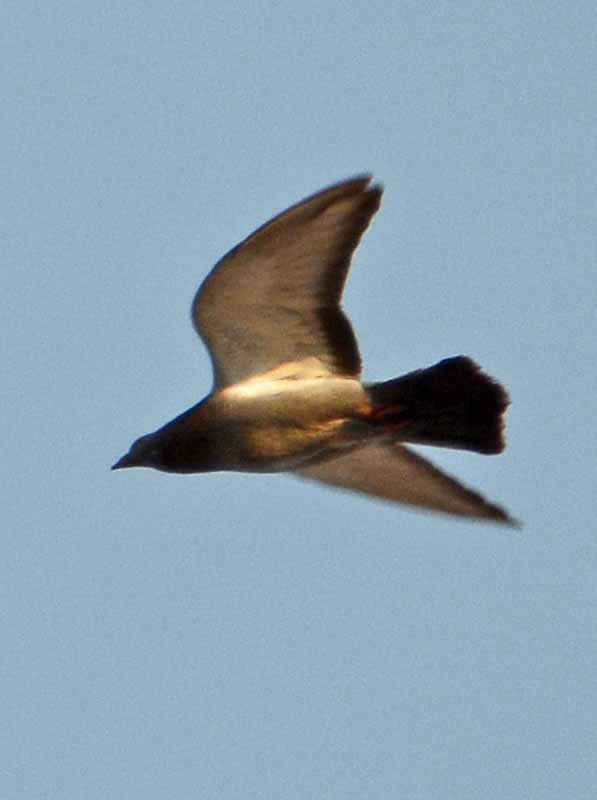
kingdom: Animalia
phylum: Chordata
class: Aves
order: Columbiformes
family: Columbidae
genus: Columba
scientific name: Columba livia
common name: Rock pigeon
